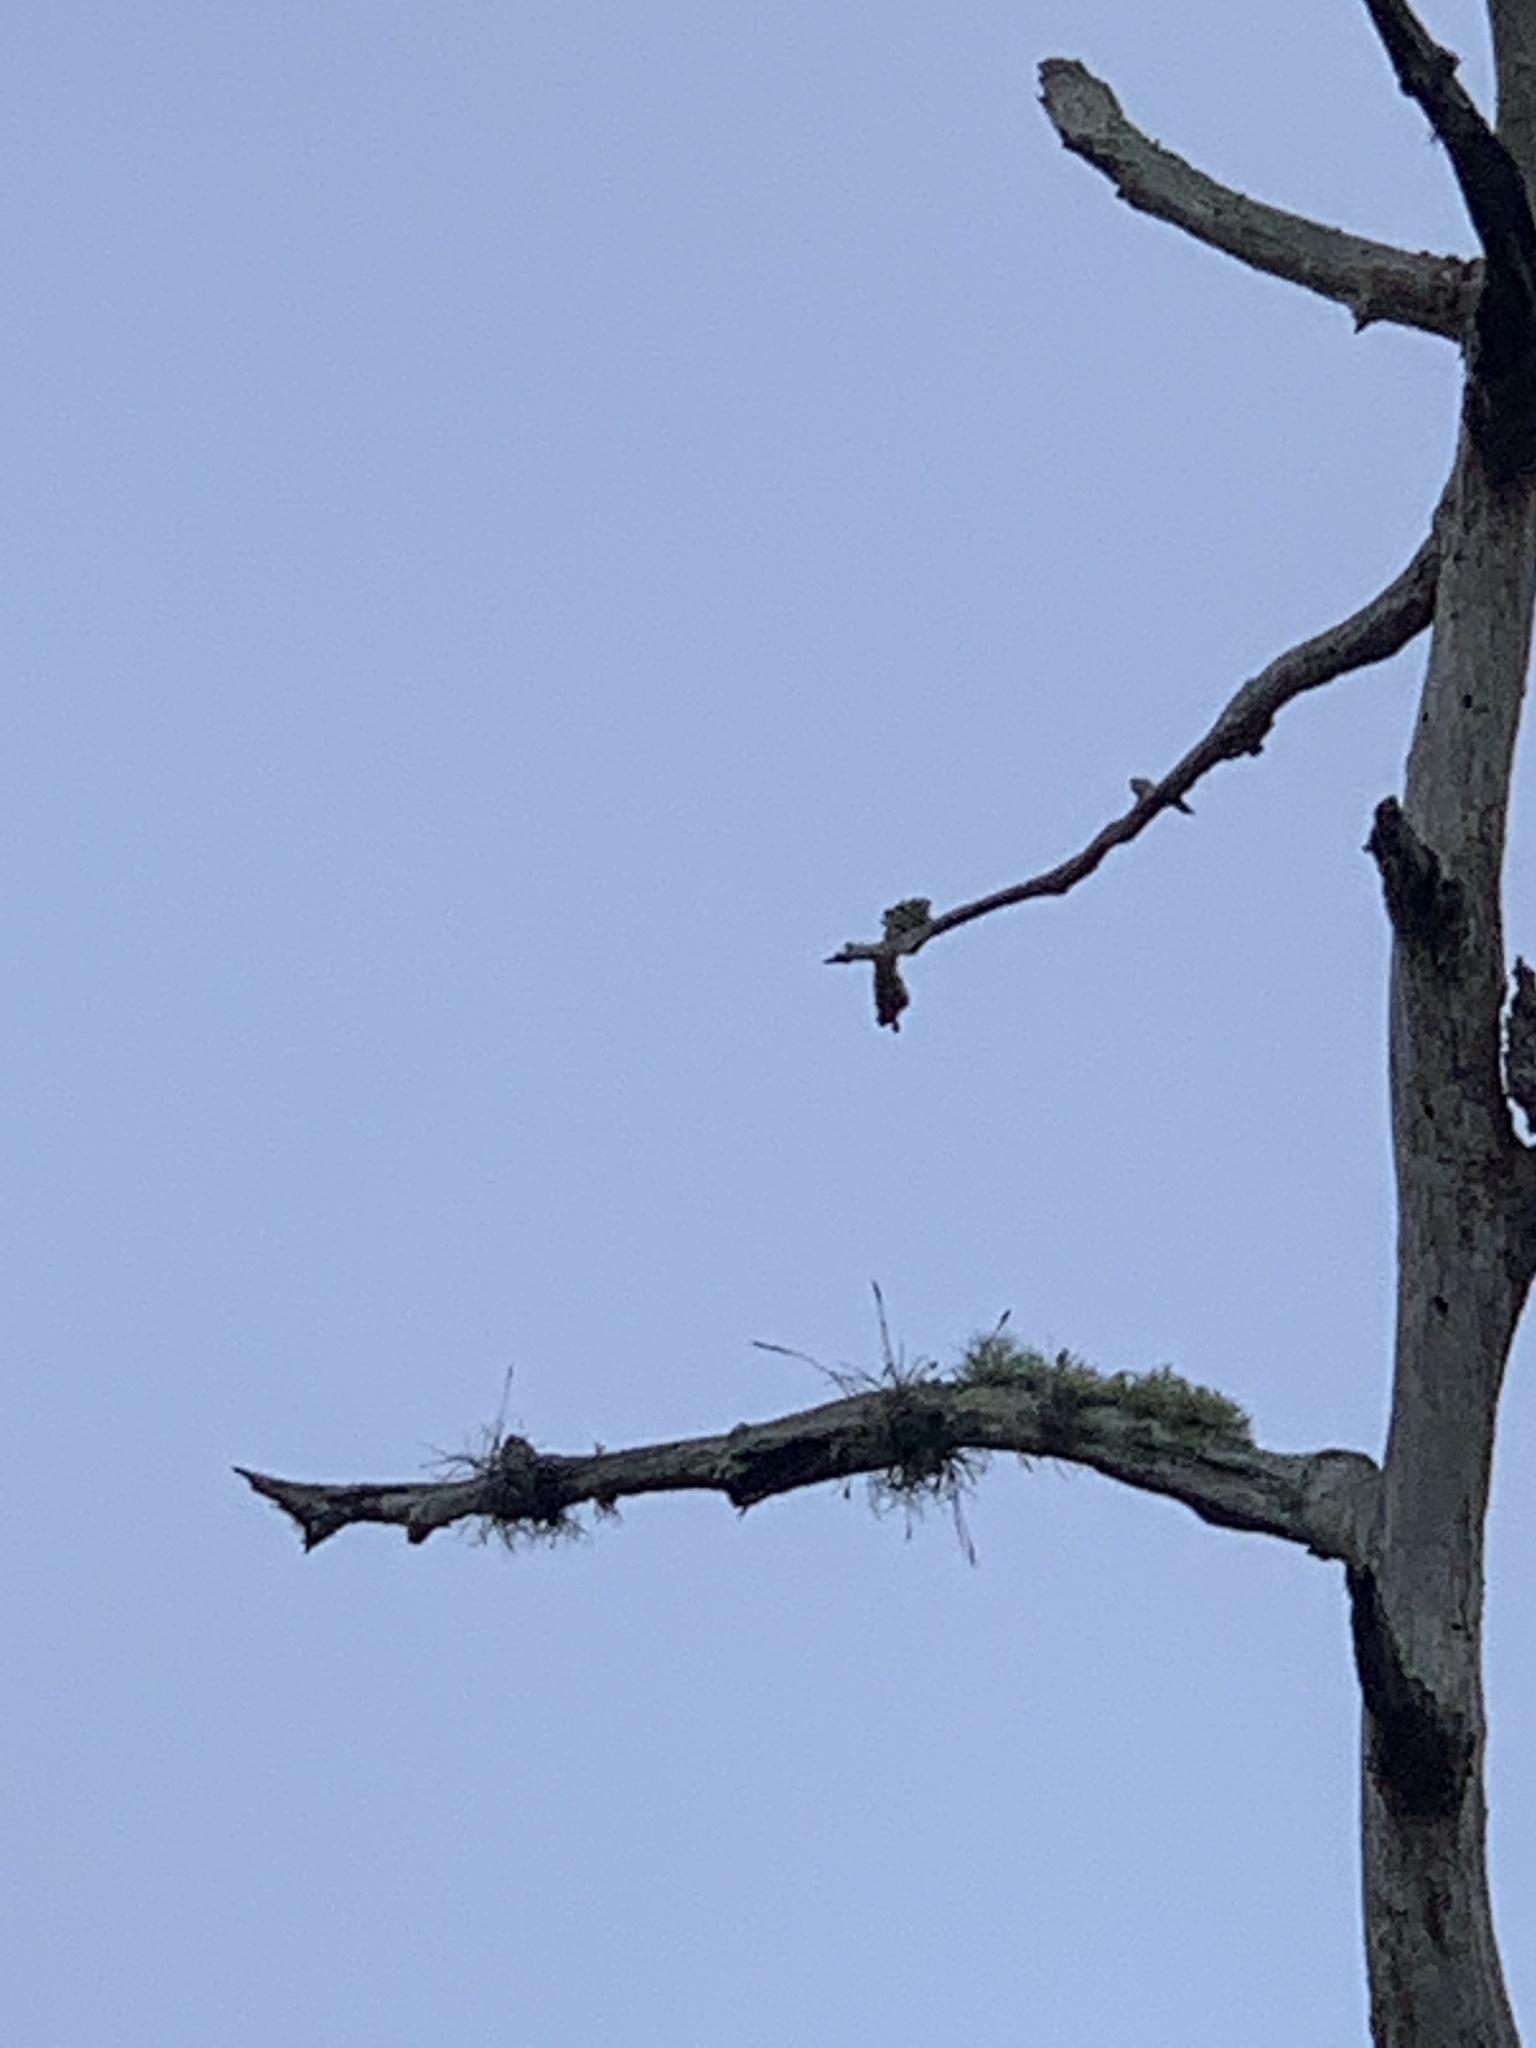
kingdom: Plantae
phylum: Tracheophyta
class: Liliopsida
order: Poales
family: Bromeliaceae
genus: Tillandsia
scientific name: Tillandsia recurvata
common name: Small ballmoss
